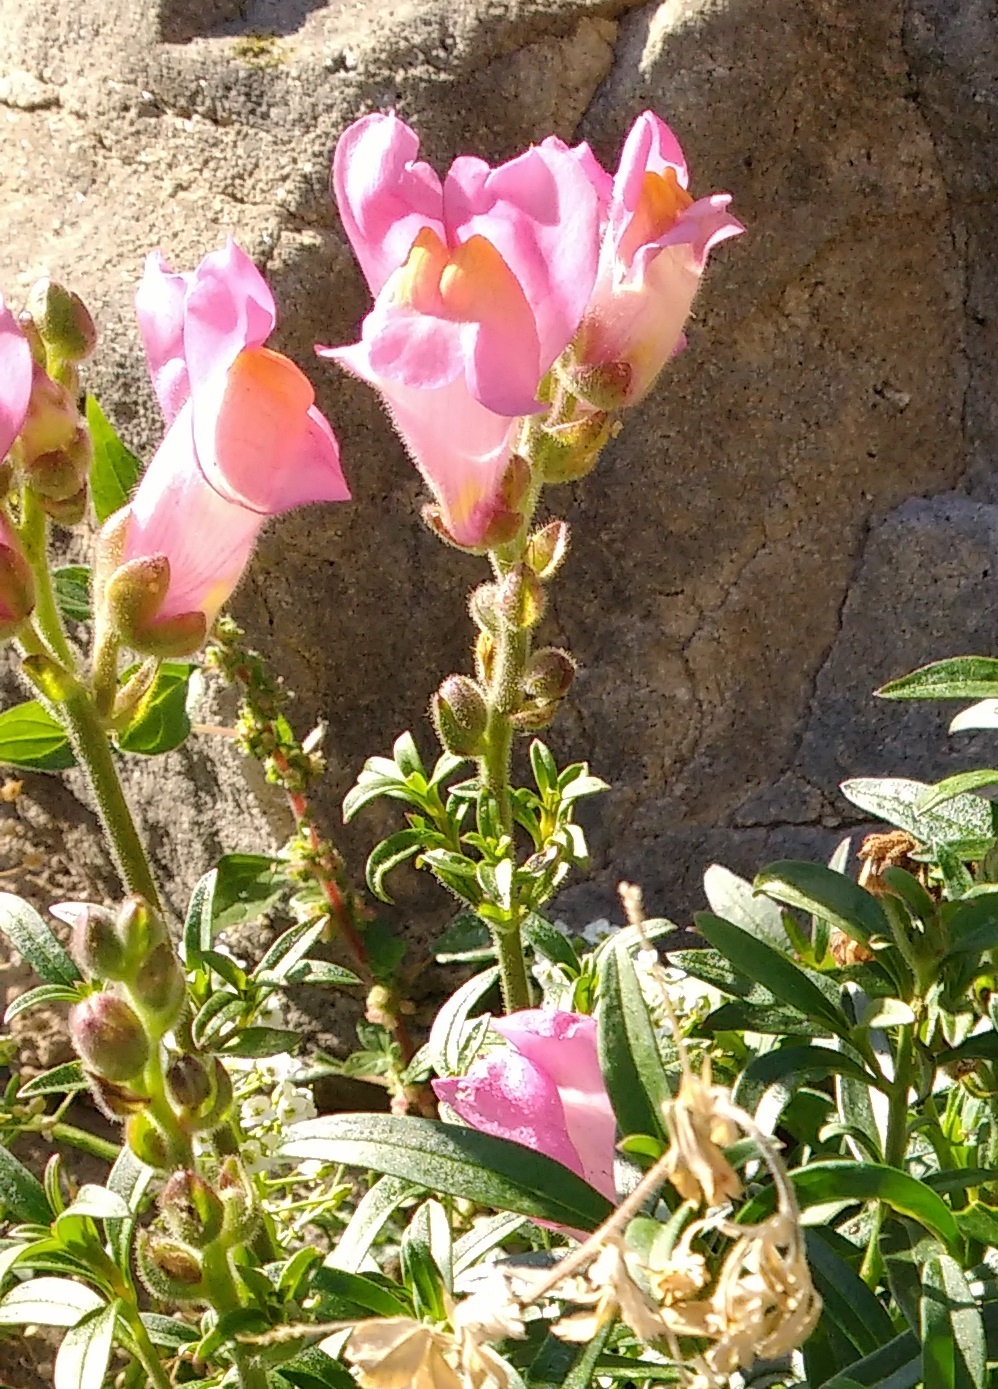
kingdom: Plantae
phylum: Tracheophyta
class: Magnoliopsida
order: Lamiales
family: Plantaginaceae
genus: Antirrhinum
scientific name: Antirrhinum majus
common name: Snapdragon
